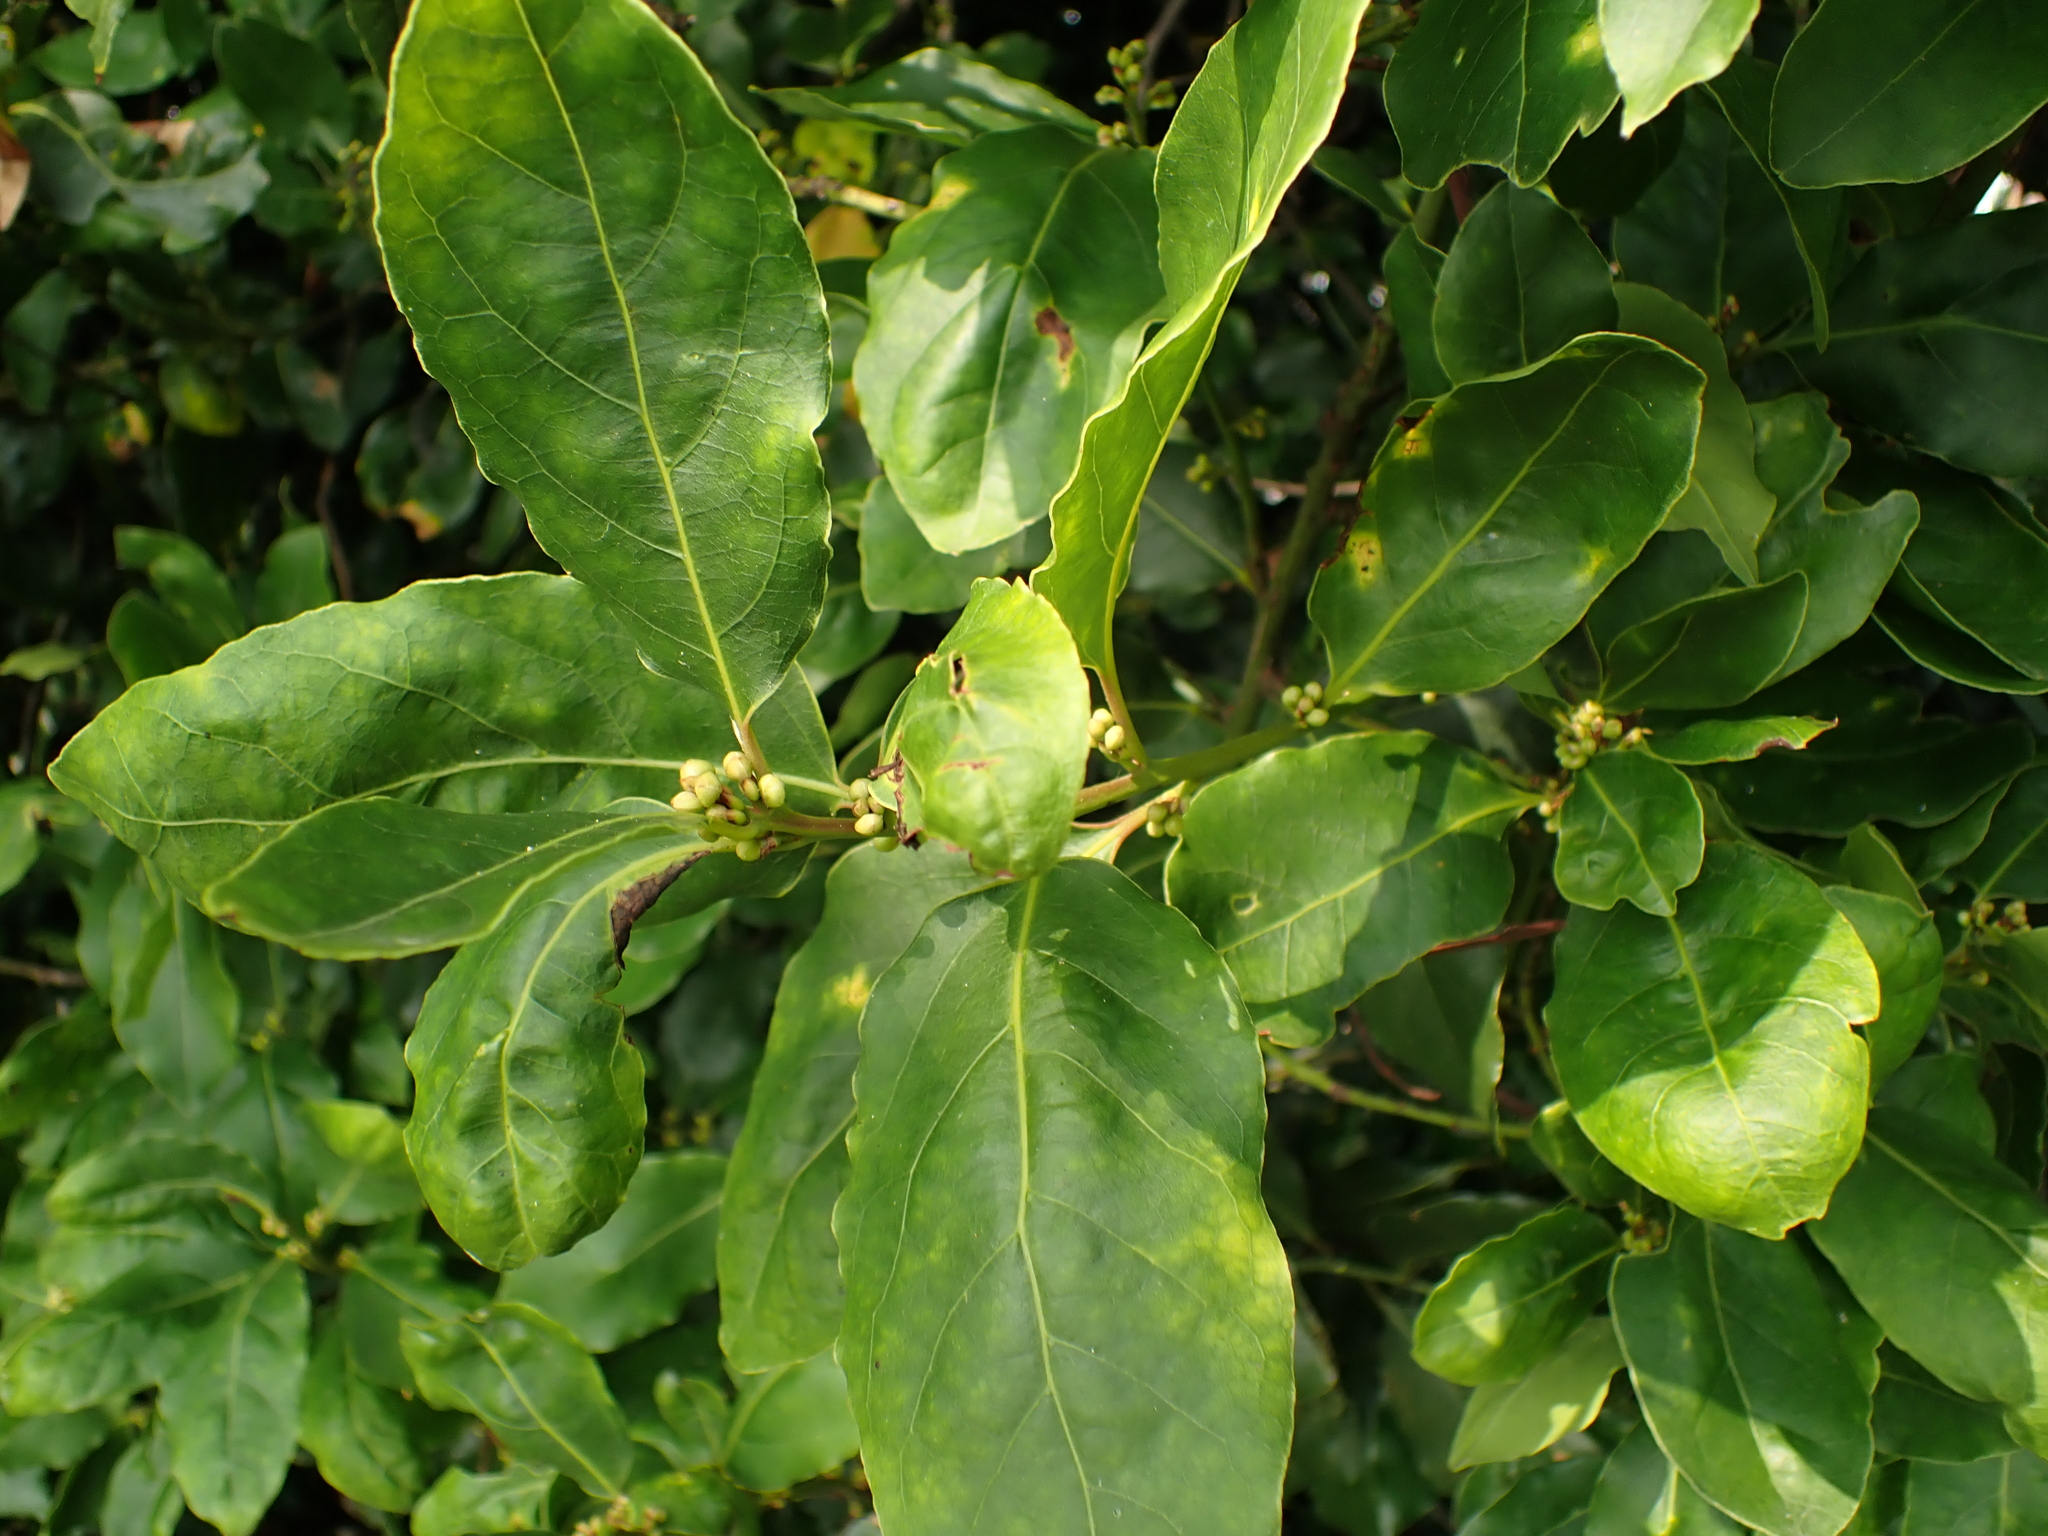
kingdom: Plantae
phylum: Tracheophyta
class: Magnoliopsida
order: Laurales
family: Lauraceae
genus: Laurus
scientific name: Laurus nobilis
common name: Bay
